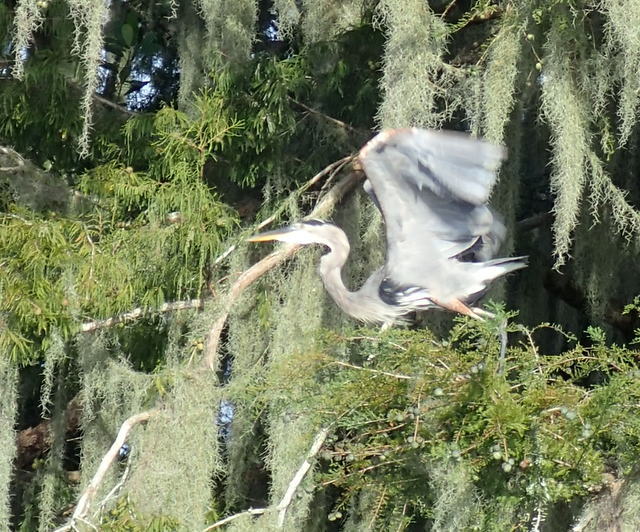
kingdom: Animalia
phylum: Chordata
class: Aves
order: Pelecaniformes
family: Ardeidae
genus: Ardea
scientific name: Ardea herodias
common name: Great blue heron
